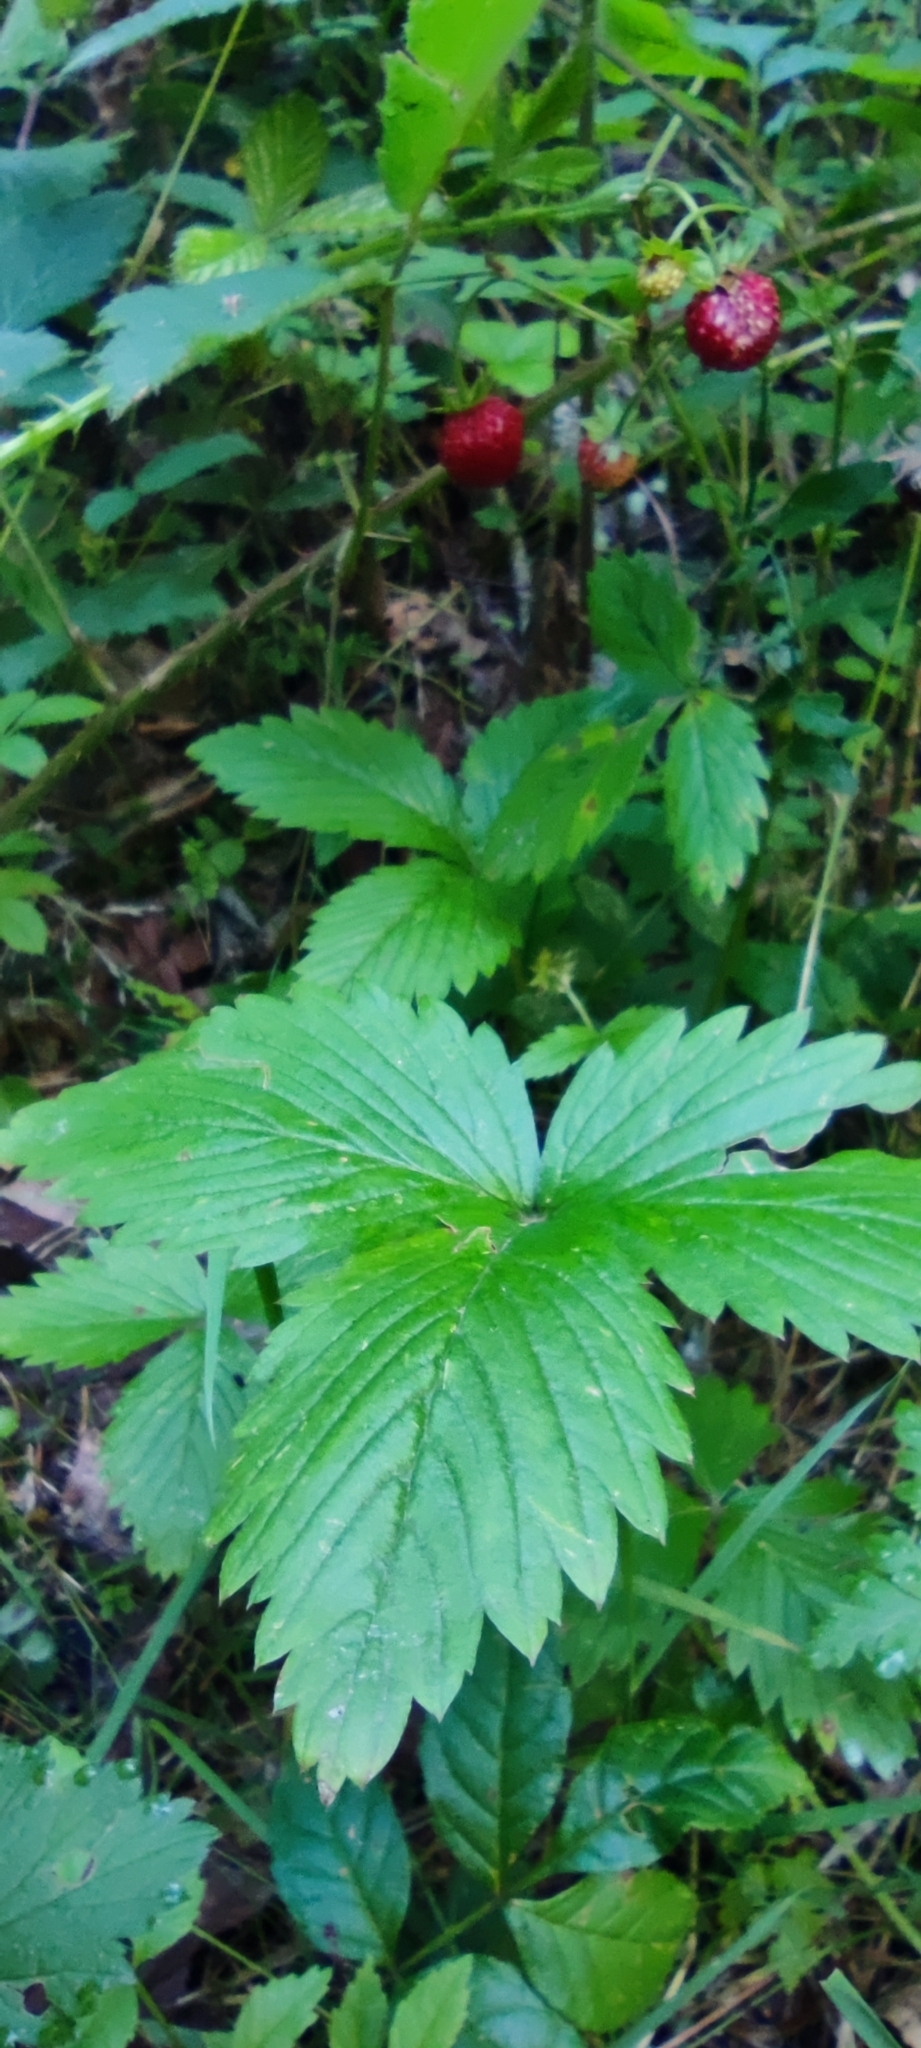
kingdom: Plantae
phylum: Tracheophyta
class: Magnoliopsida
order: Rosales
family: Rosaceae
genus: Fragaria
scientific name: Fragaria vesca
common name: Wild strawberry
